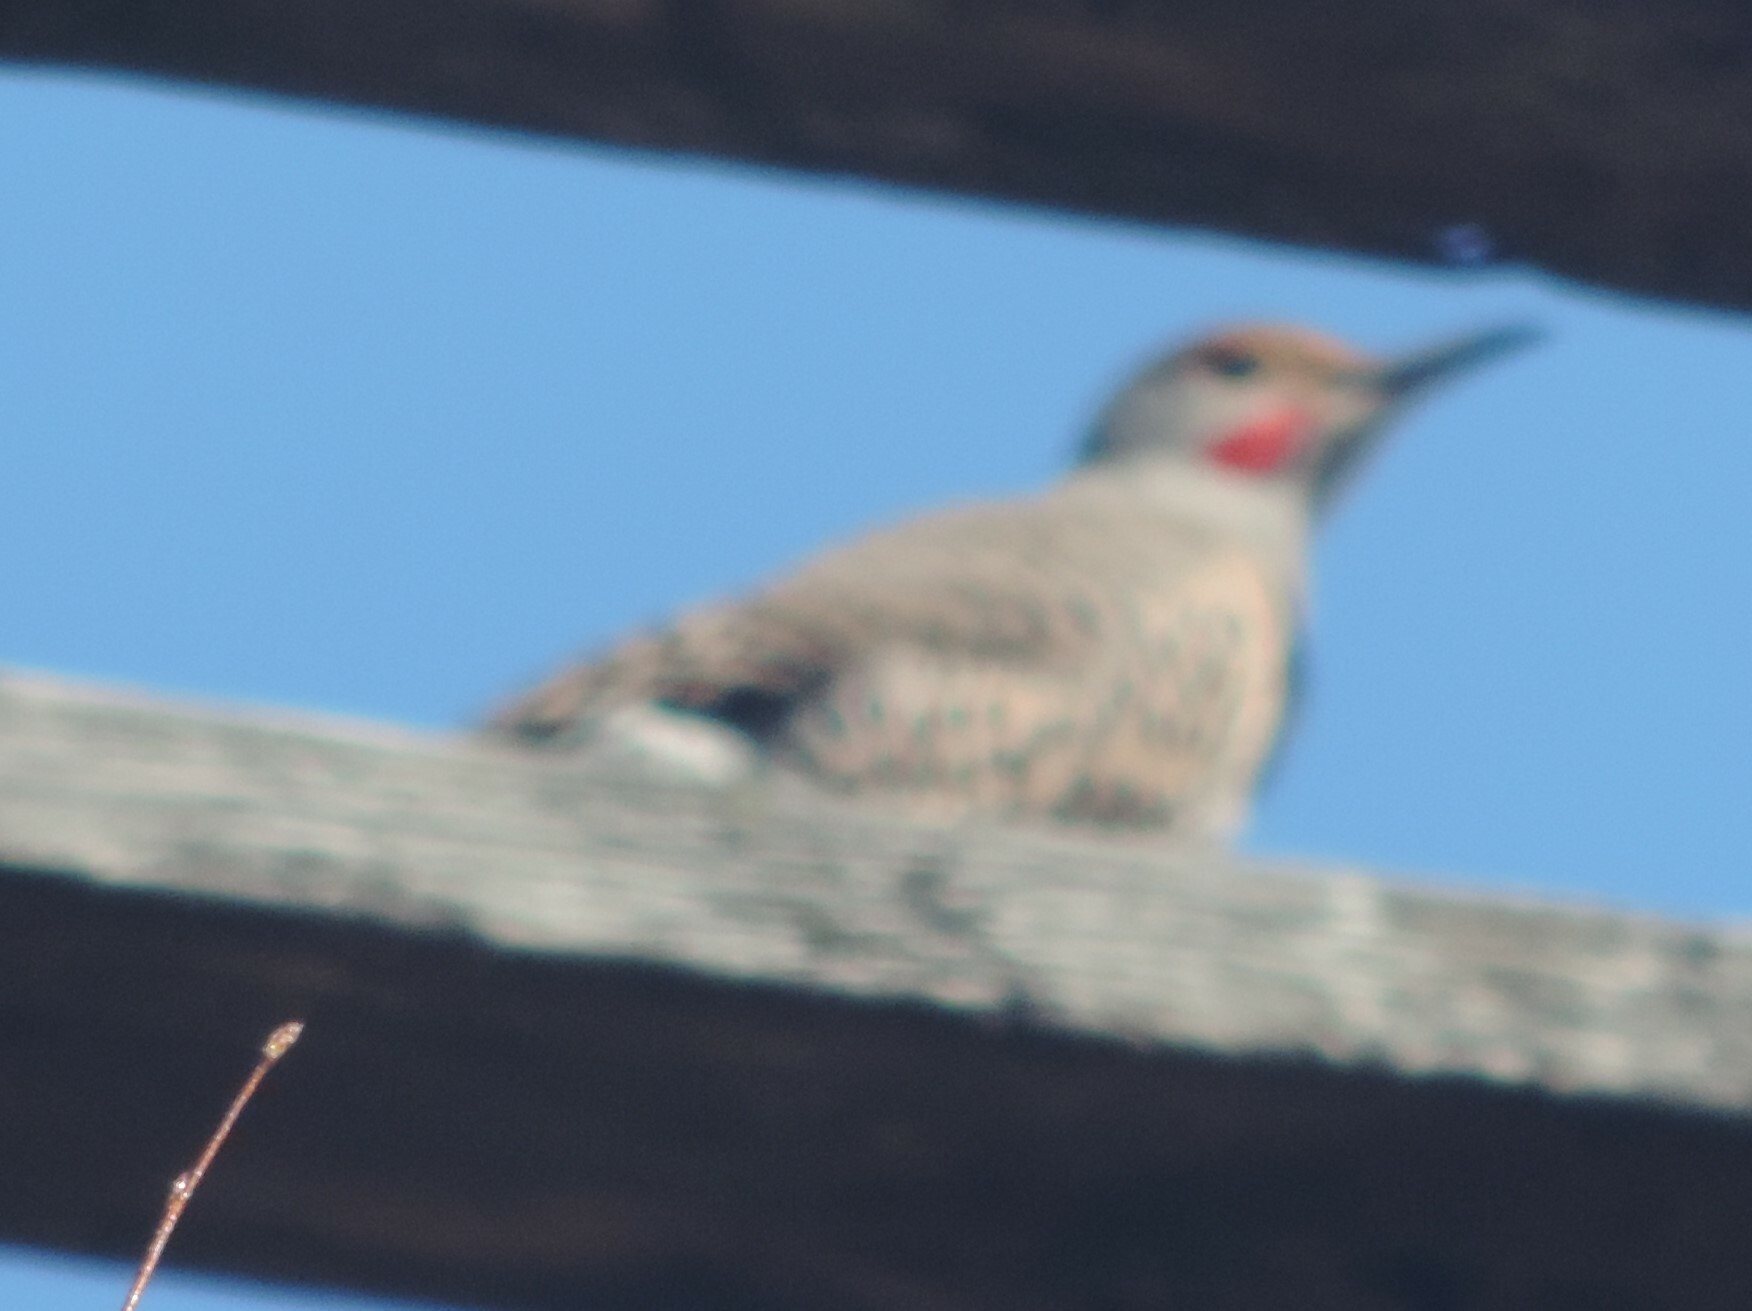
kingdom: Animalia
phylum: Chordata
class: Aves
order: Piciformes
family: Picidae
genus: Colaptes
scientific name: Colaptes auratus
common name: Northern flicker
